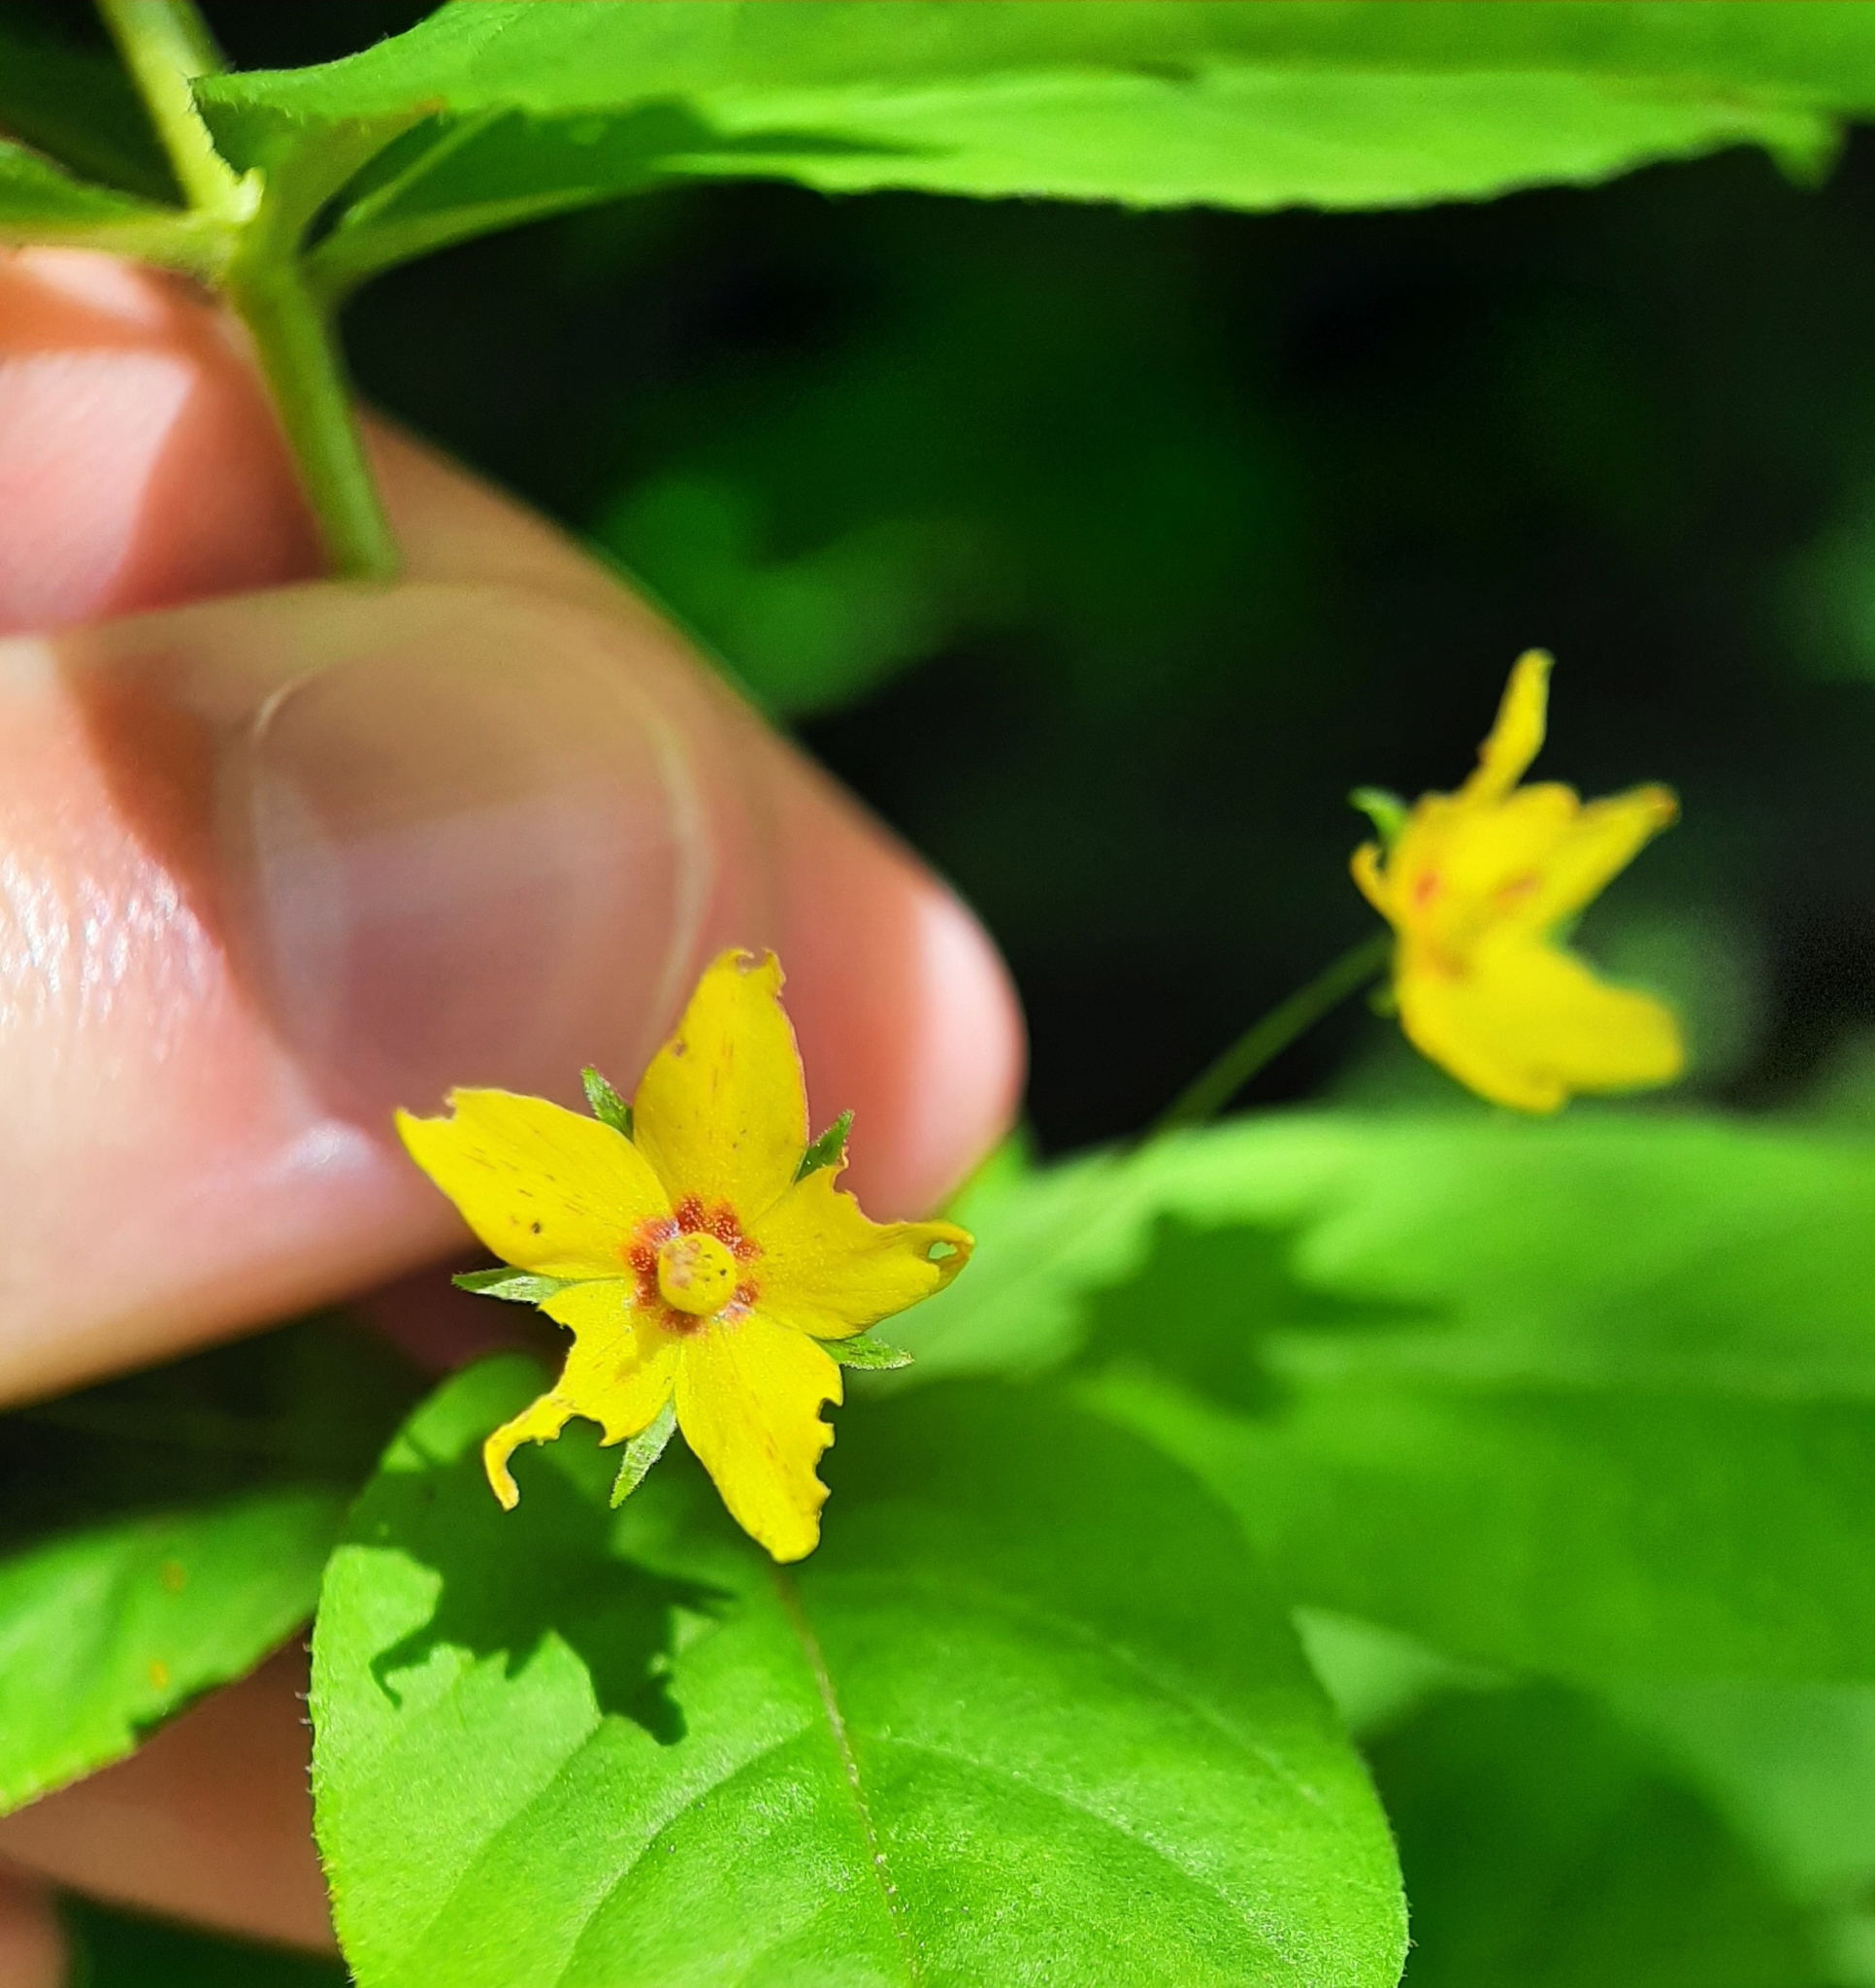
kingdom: Plantae
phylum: Tracheophyta
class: Magnoliopsida
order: Ericales
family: Primulaceae
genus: Lysimachia
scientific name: Lysimachia quadrifolia
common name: Whorled loosestrife
